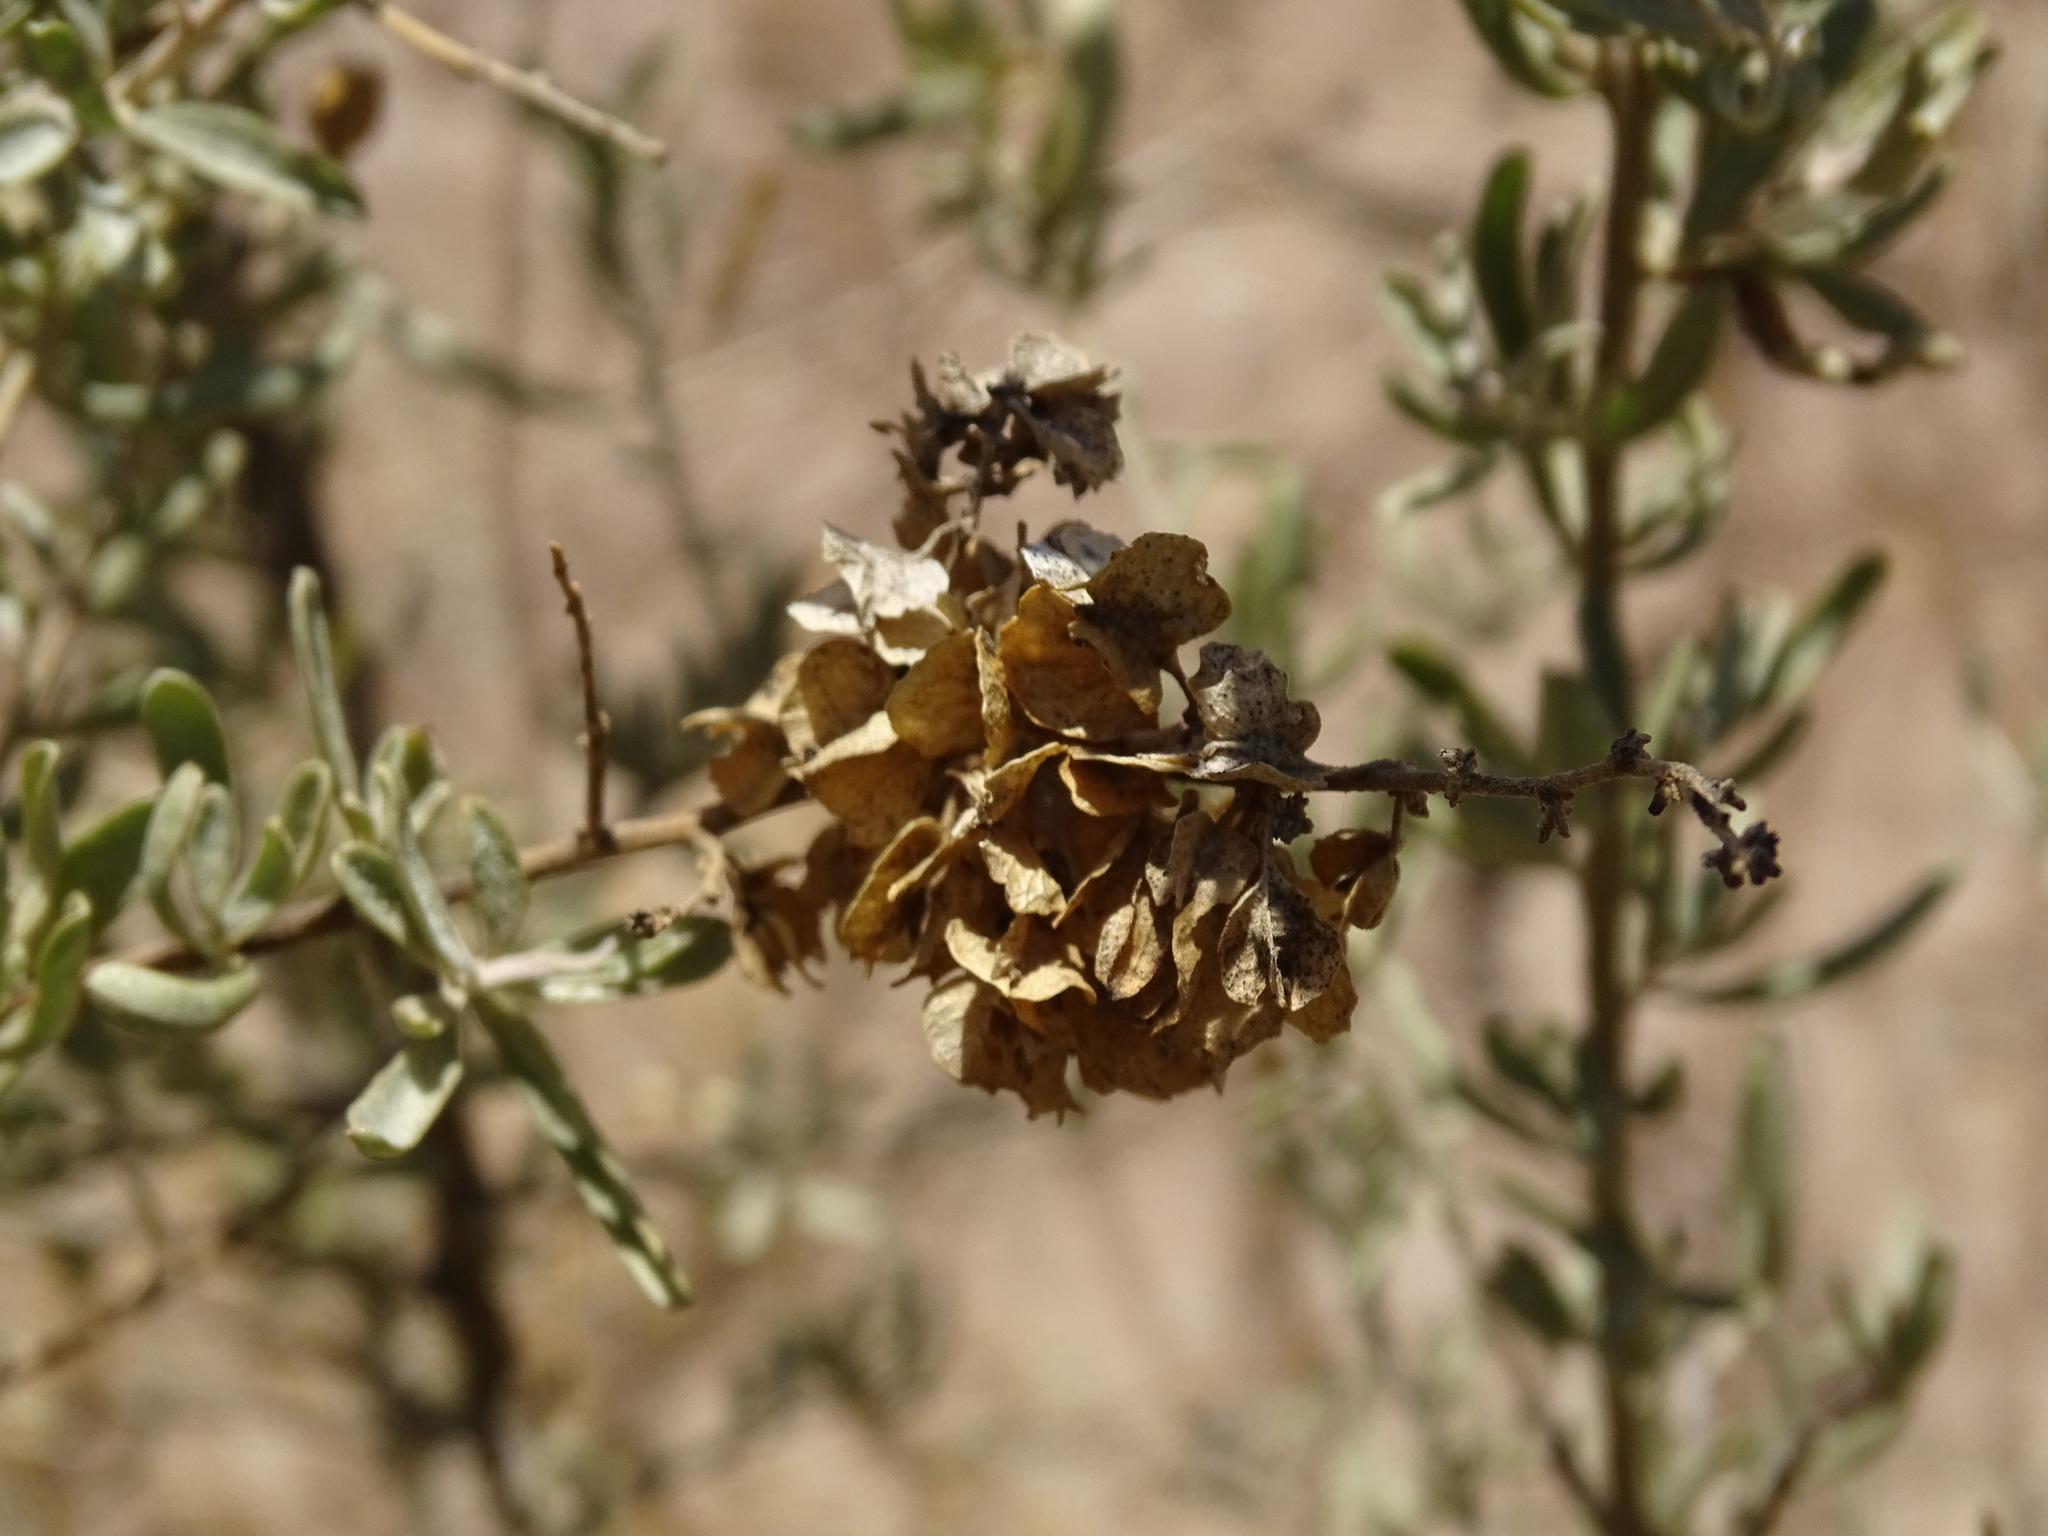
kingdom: Plantae
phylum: Tracheophyta
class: Magnoliopsida
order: Caryophyllales
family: Amaranthaceae
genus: Atriplex
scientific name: Atriplex canescens
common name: Four-wing saltbush
